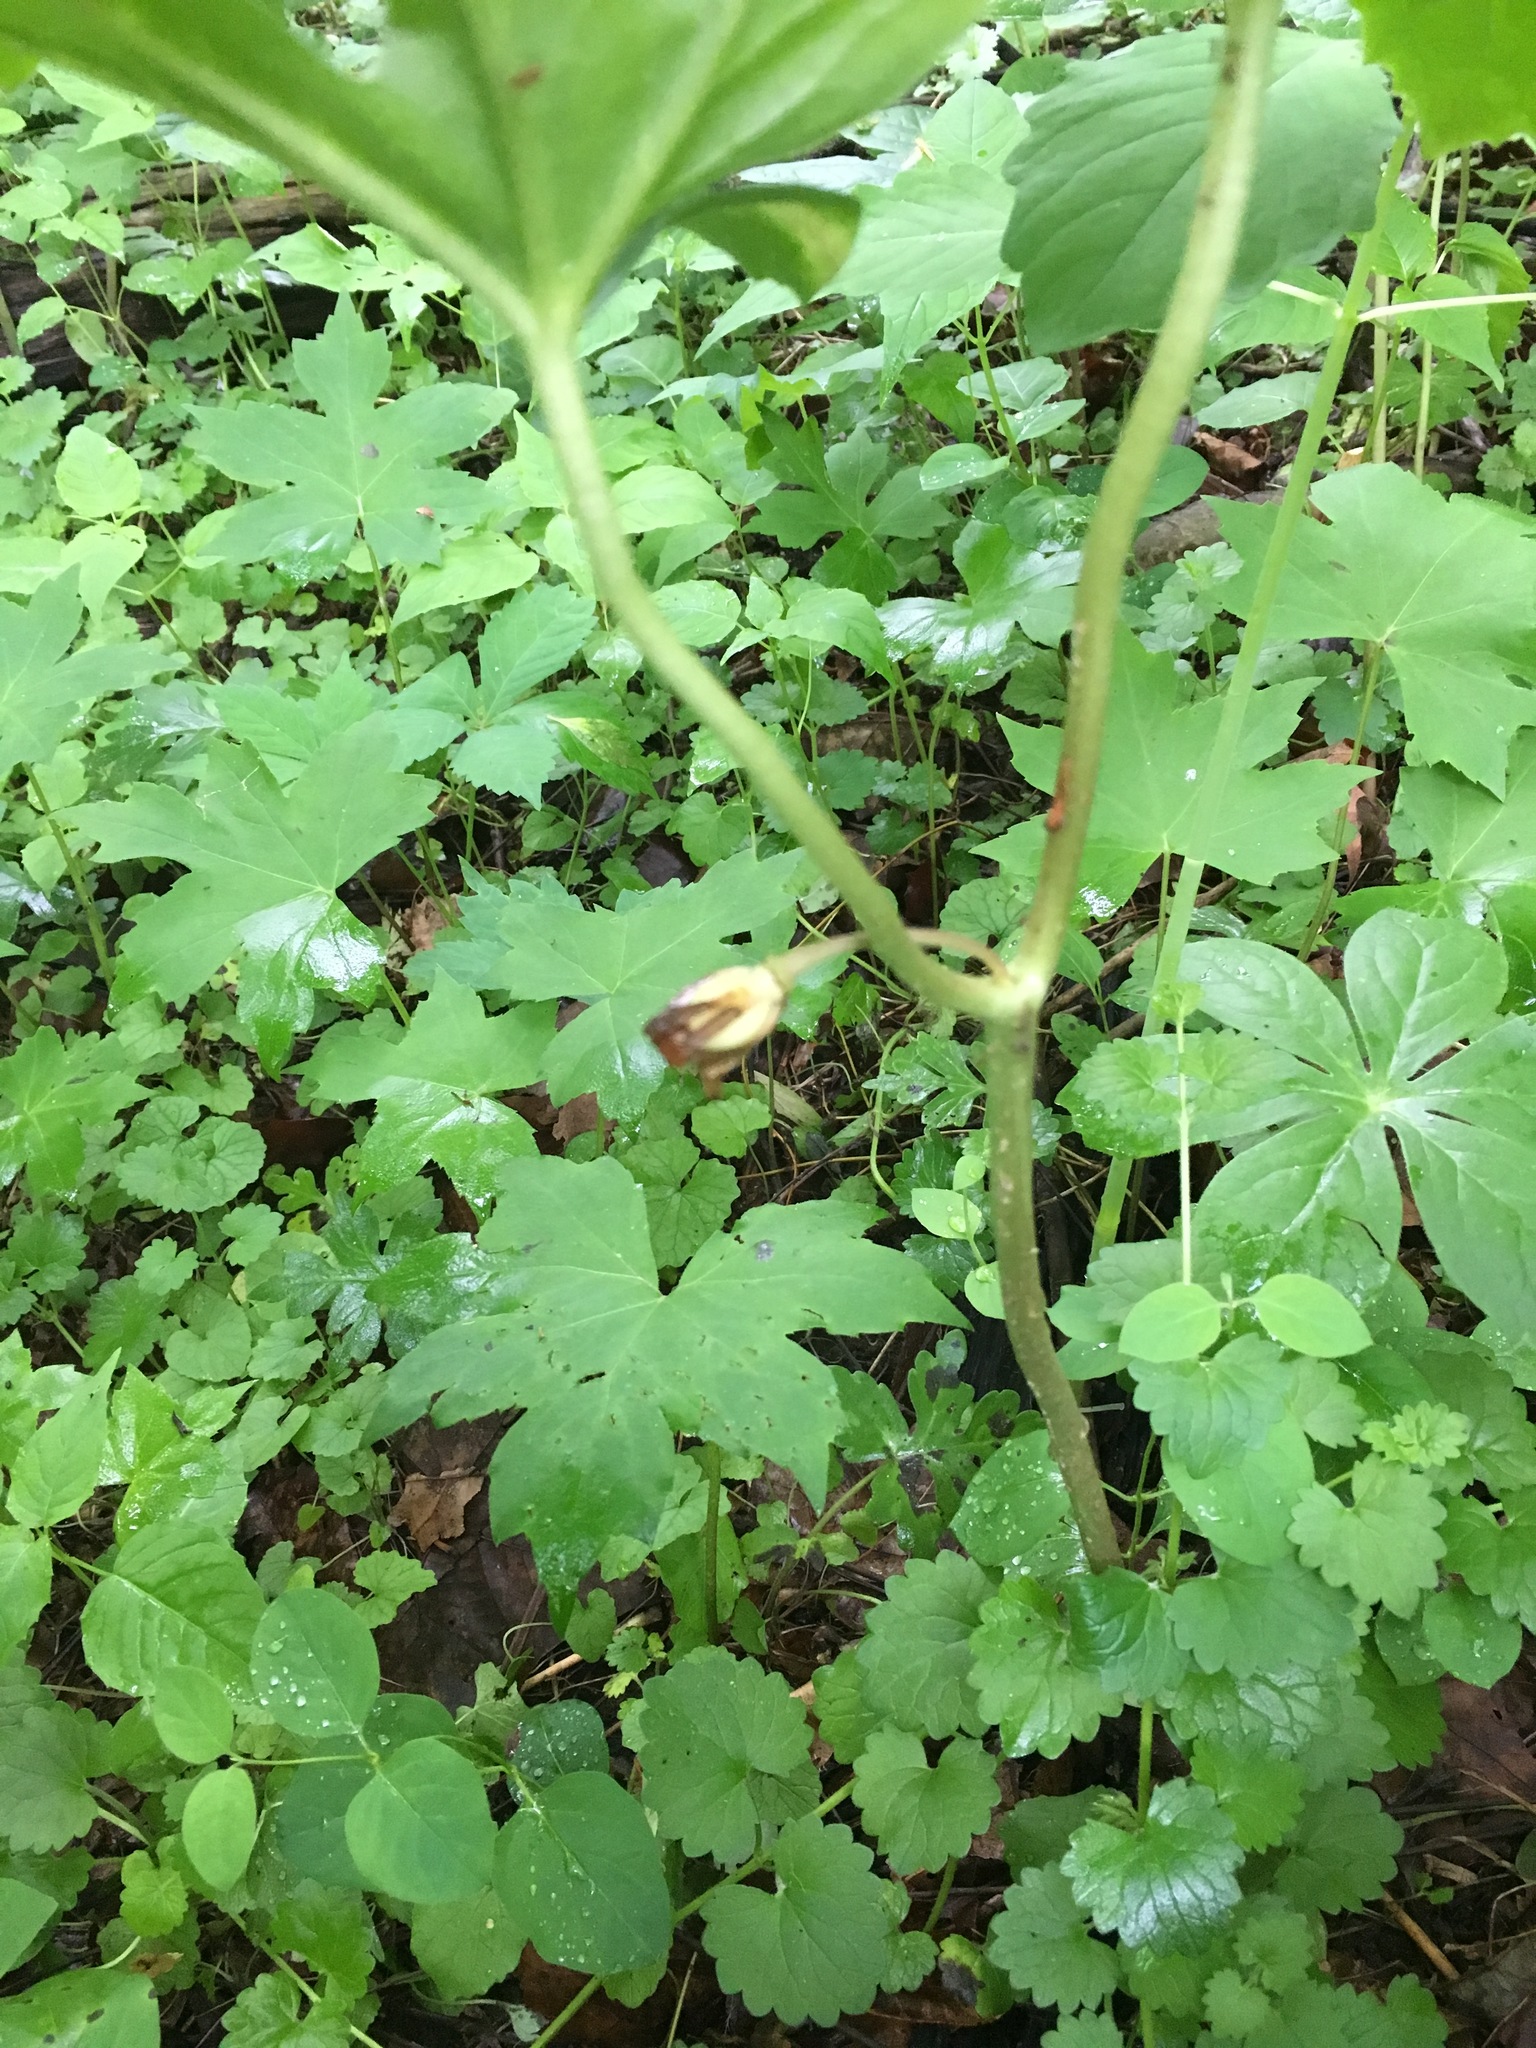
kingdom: Plantae
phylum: Tracheophyta
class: Magnoliopsida
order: Ranunculales
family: Berberidaceae
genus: Podophyllum
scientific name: Podophyllum peltatum
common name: Wild mandrake
